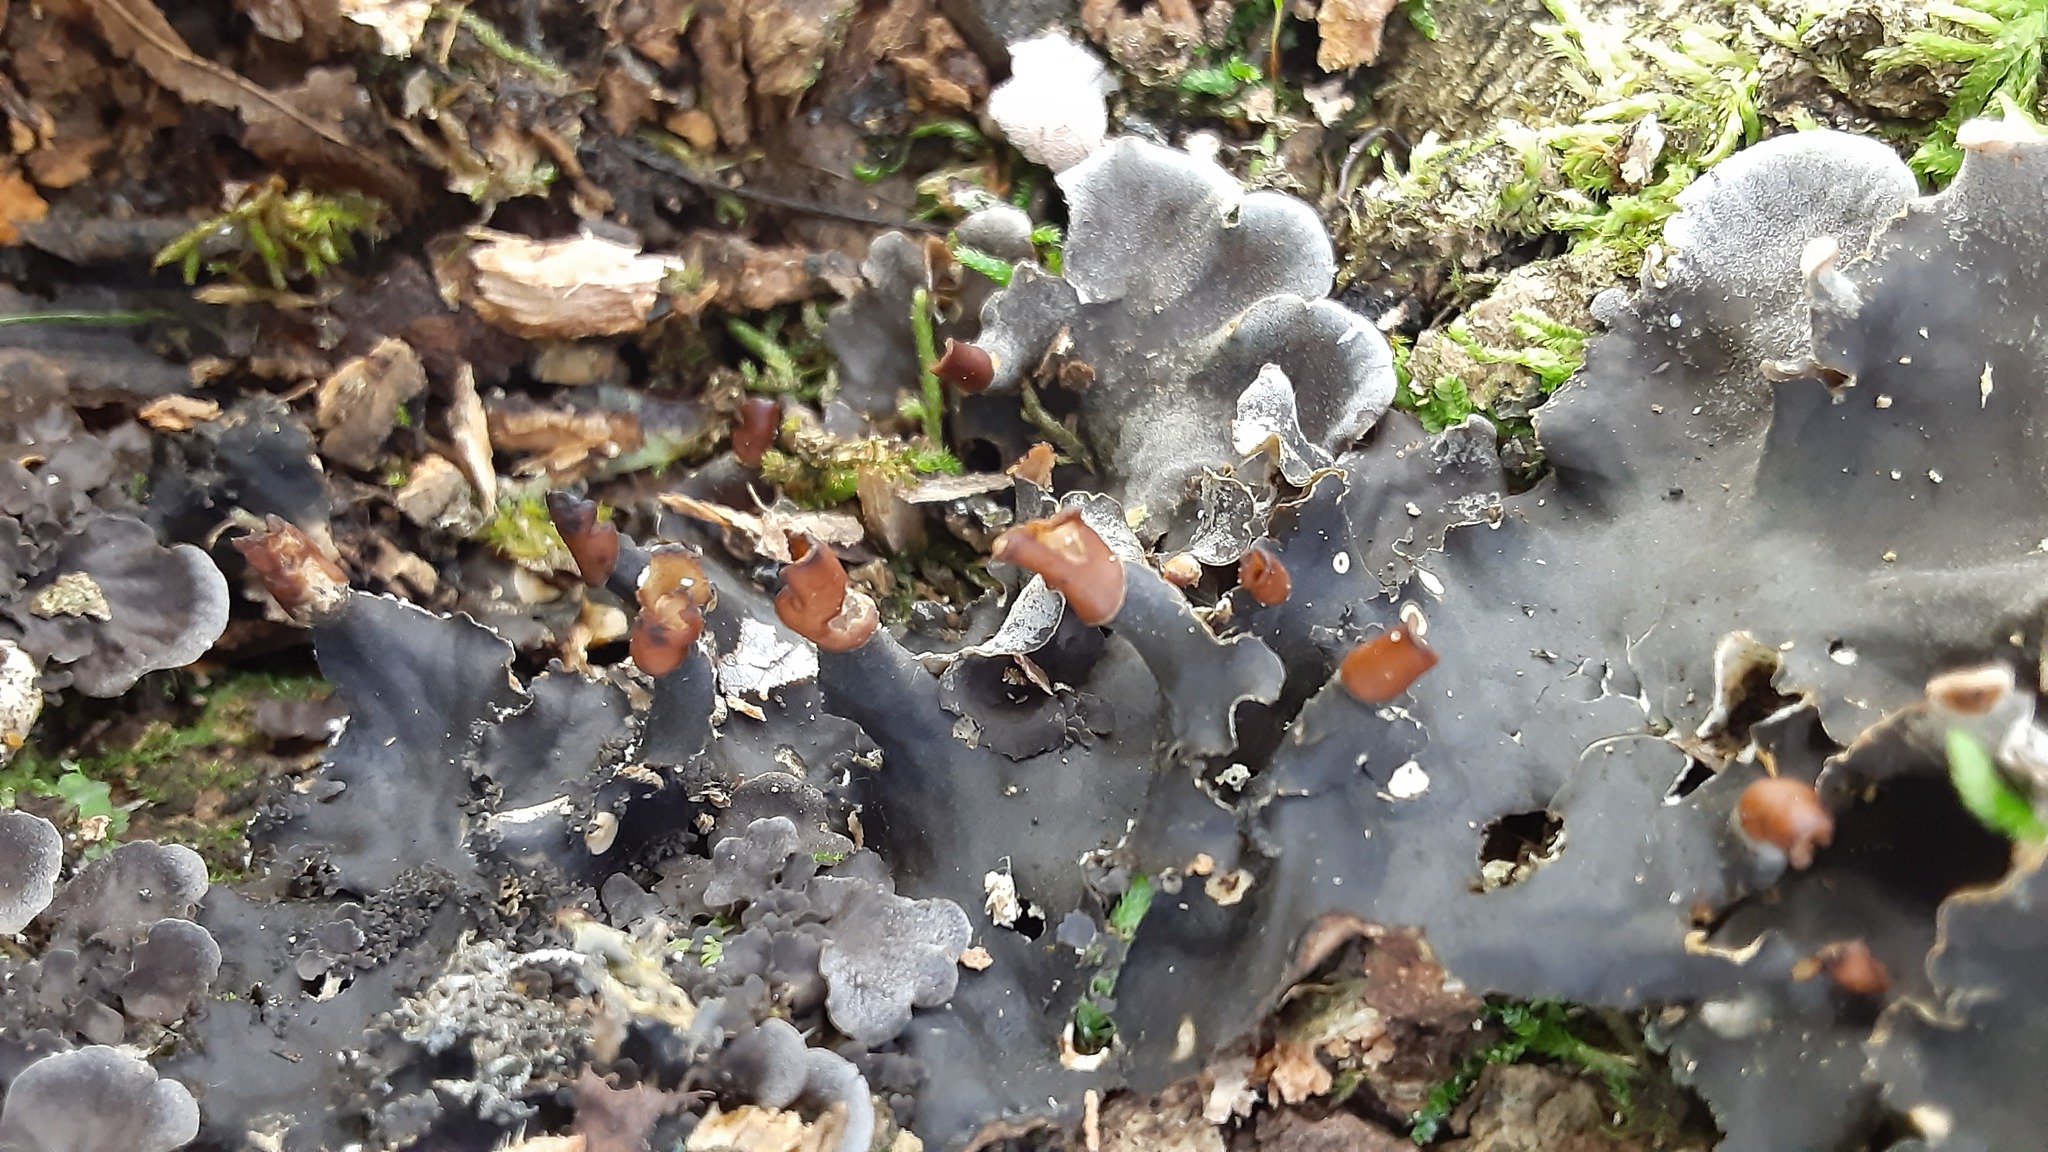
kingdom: Fungi
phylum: Ascomycota
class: Lecanoromycetes
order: Peltigerales
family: Peltigeraceae
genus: Peltigera
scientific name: Peltigera praetextata
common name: Scaly dog-lichen
